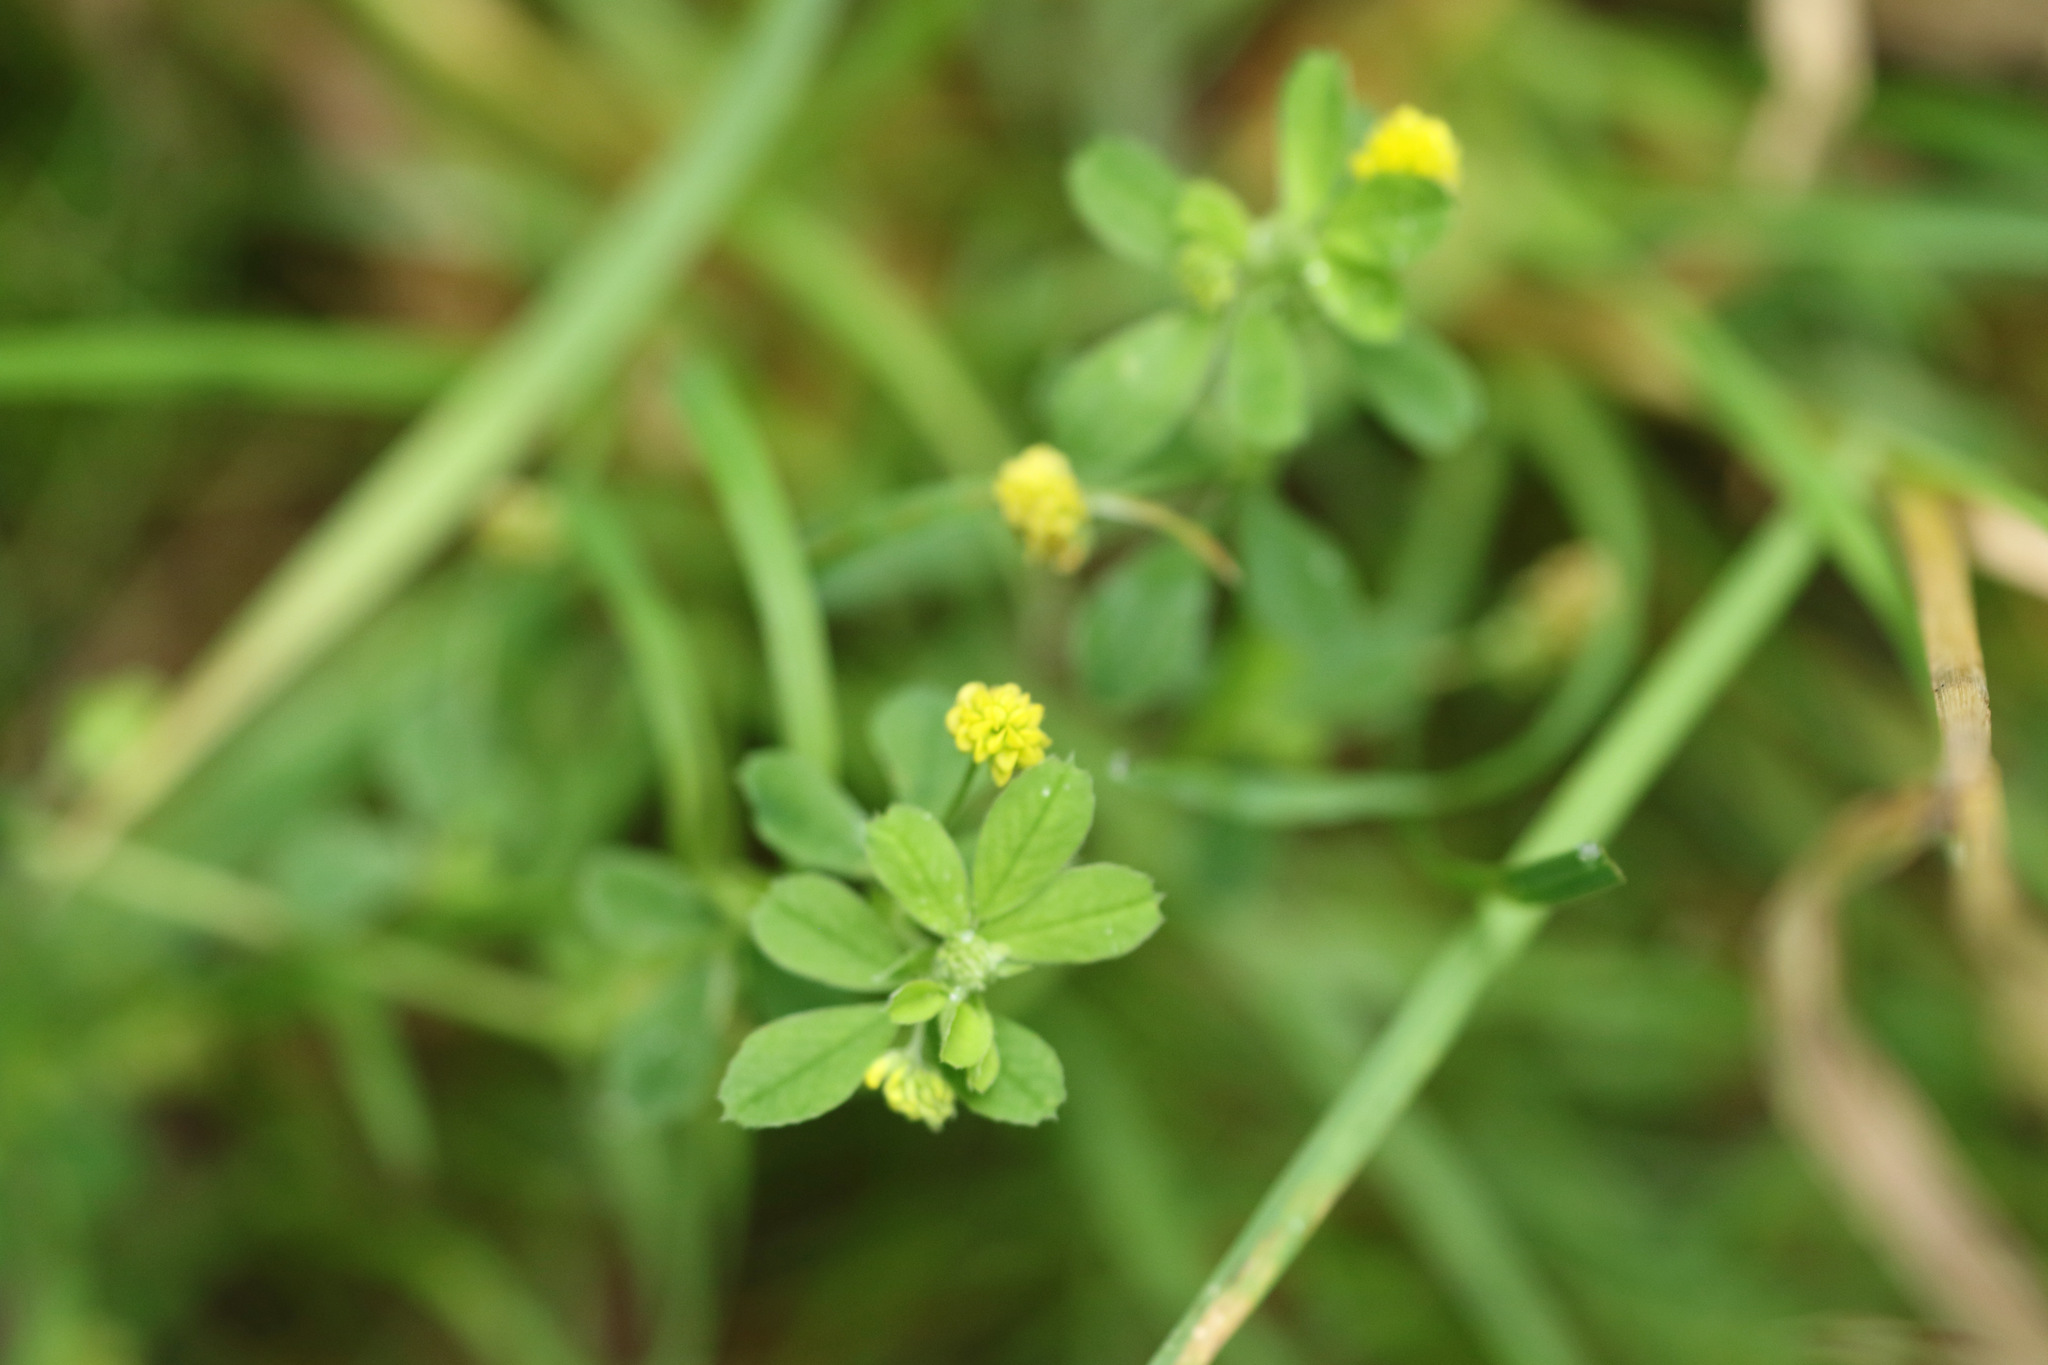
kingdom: Plantae
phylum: Tracheophyta
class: Magnoliopsida
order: Fabales
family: Fabaceae
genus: Medicago
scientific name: Medicago lupulina
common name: Black medick
